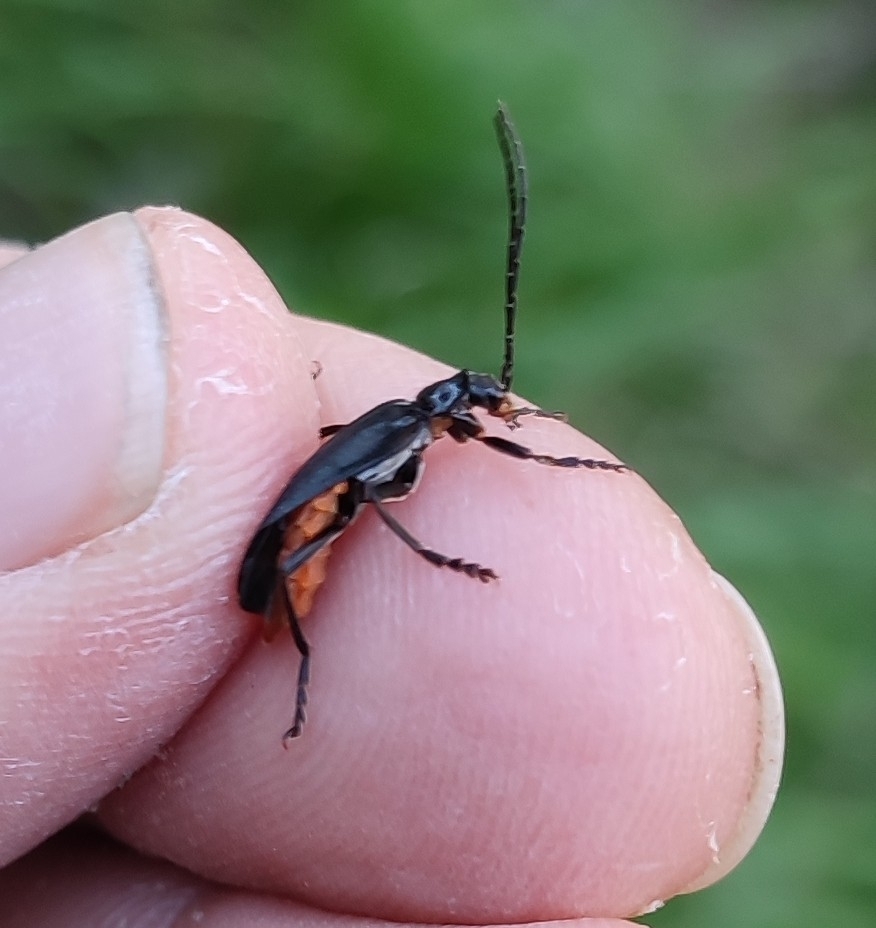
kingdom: Animalia
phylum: Arthropoda
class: Insecta
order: Coleoptera
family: Cantharidae
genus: Ancistronycha
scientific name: Ancistronycha abdominalis
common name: Blue soldier beetle
